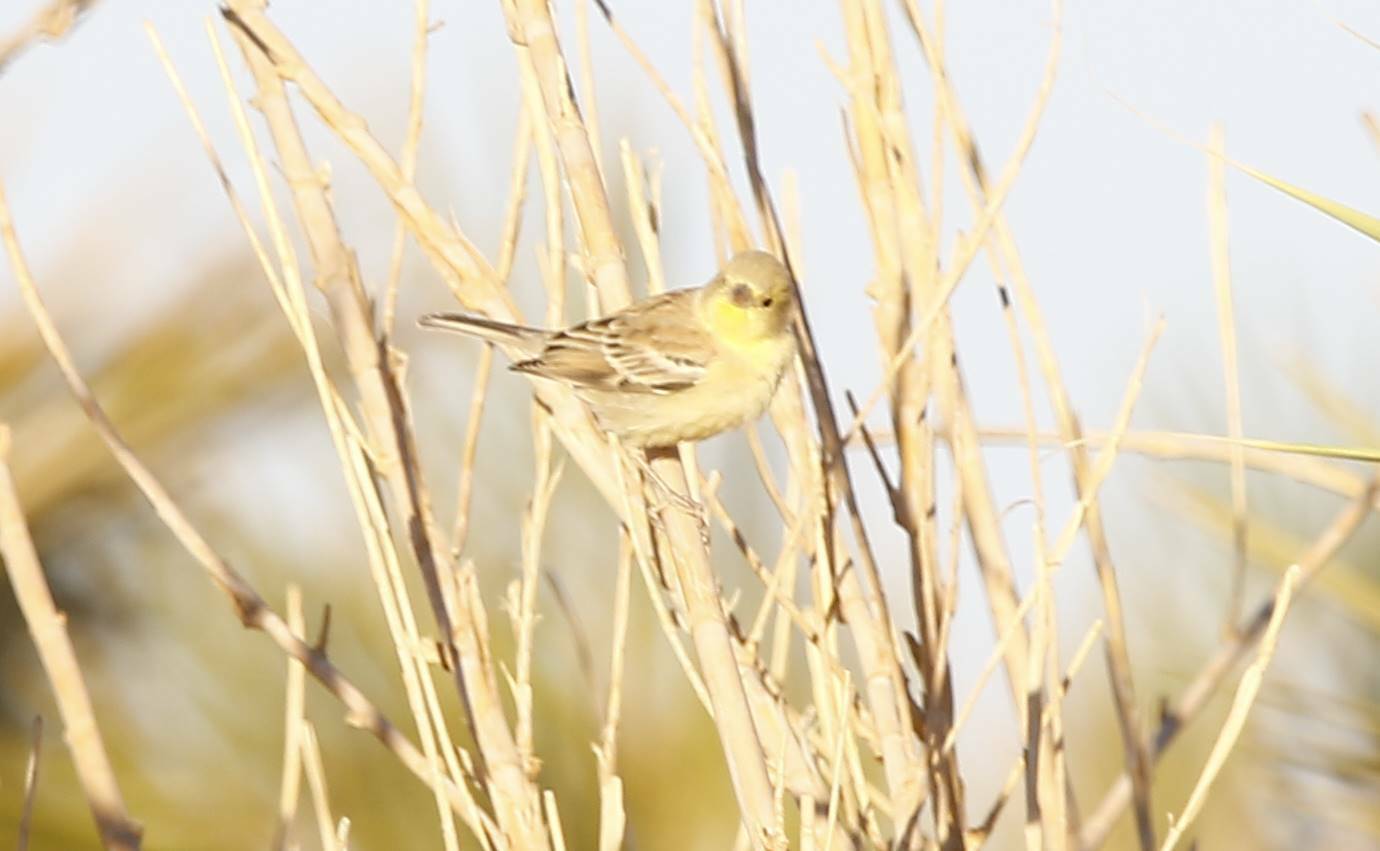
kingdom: Animalia
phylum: Chordata
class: Aves
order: Passeriformes
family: Passeridae
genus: Passer
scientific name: Passer luteus
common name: Sudan golden sparrow
